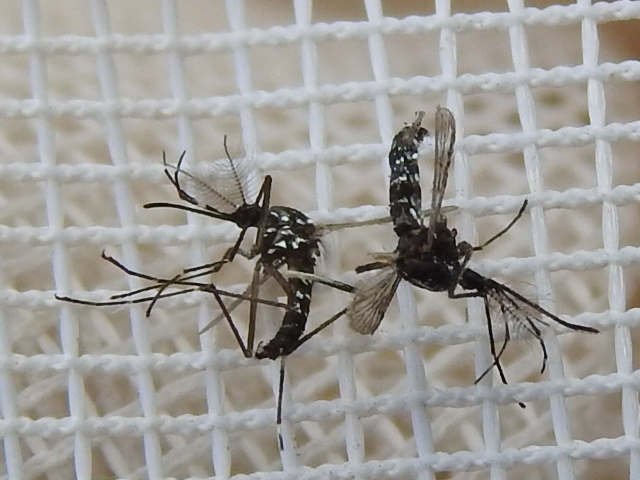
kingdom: Animalia
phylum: Arthropoda
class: Insecta
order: Diptera
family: Culicidae
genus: Aedes
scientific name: Aedes albopictus
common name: Tiger mosquito
